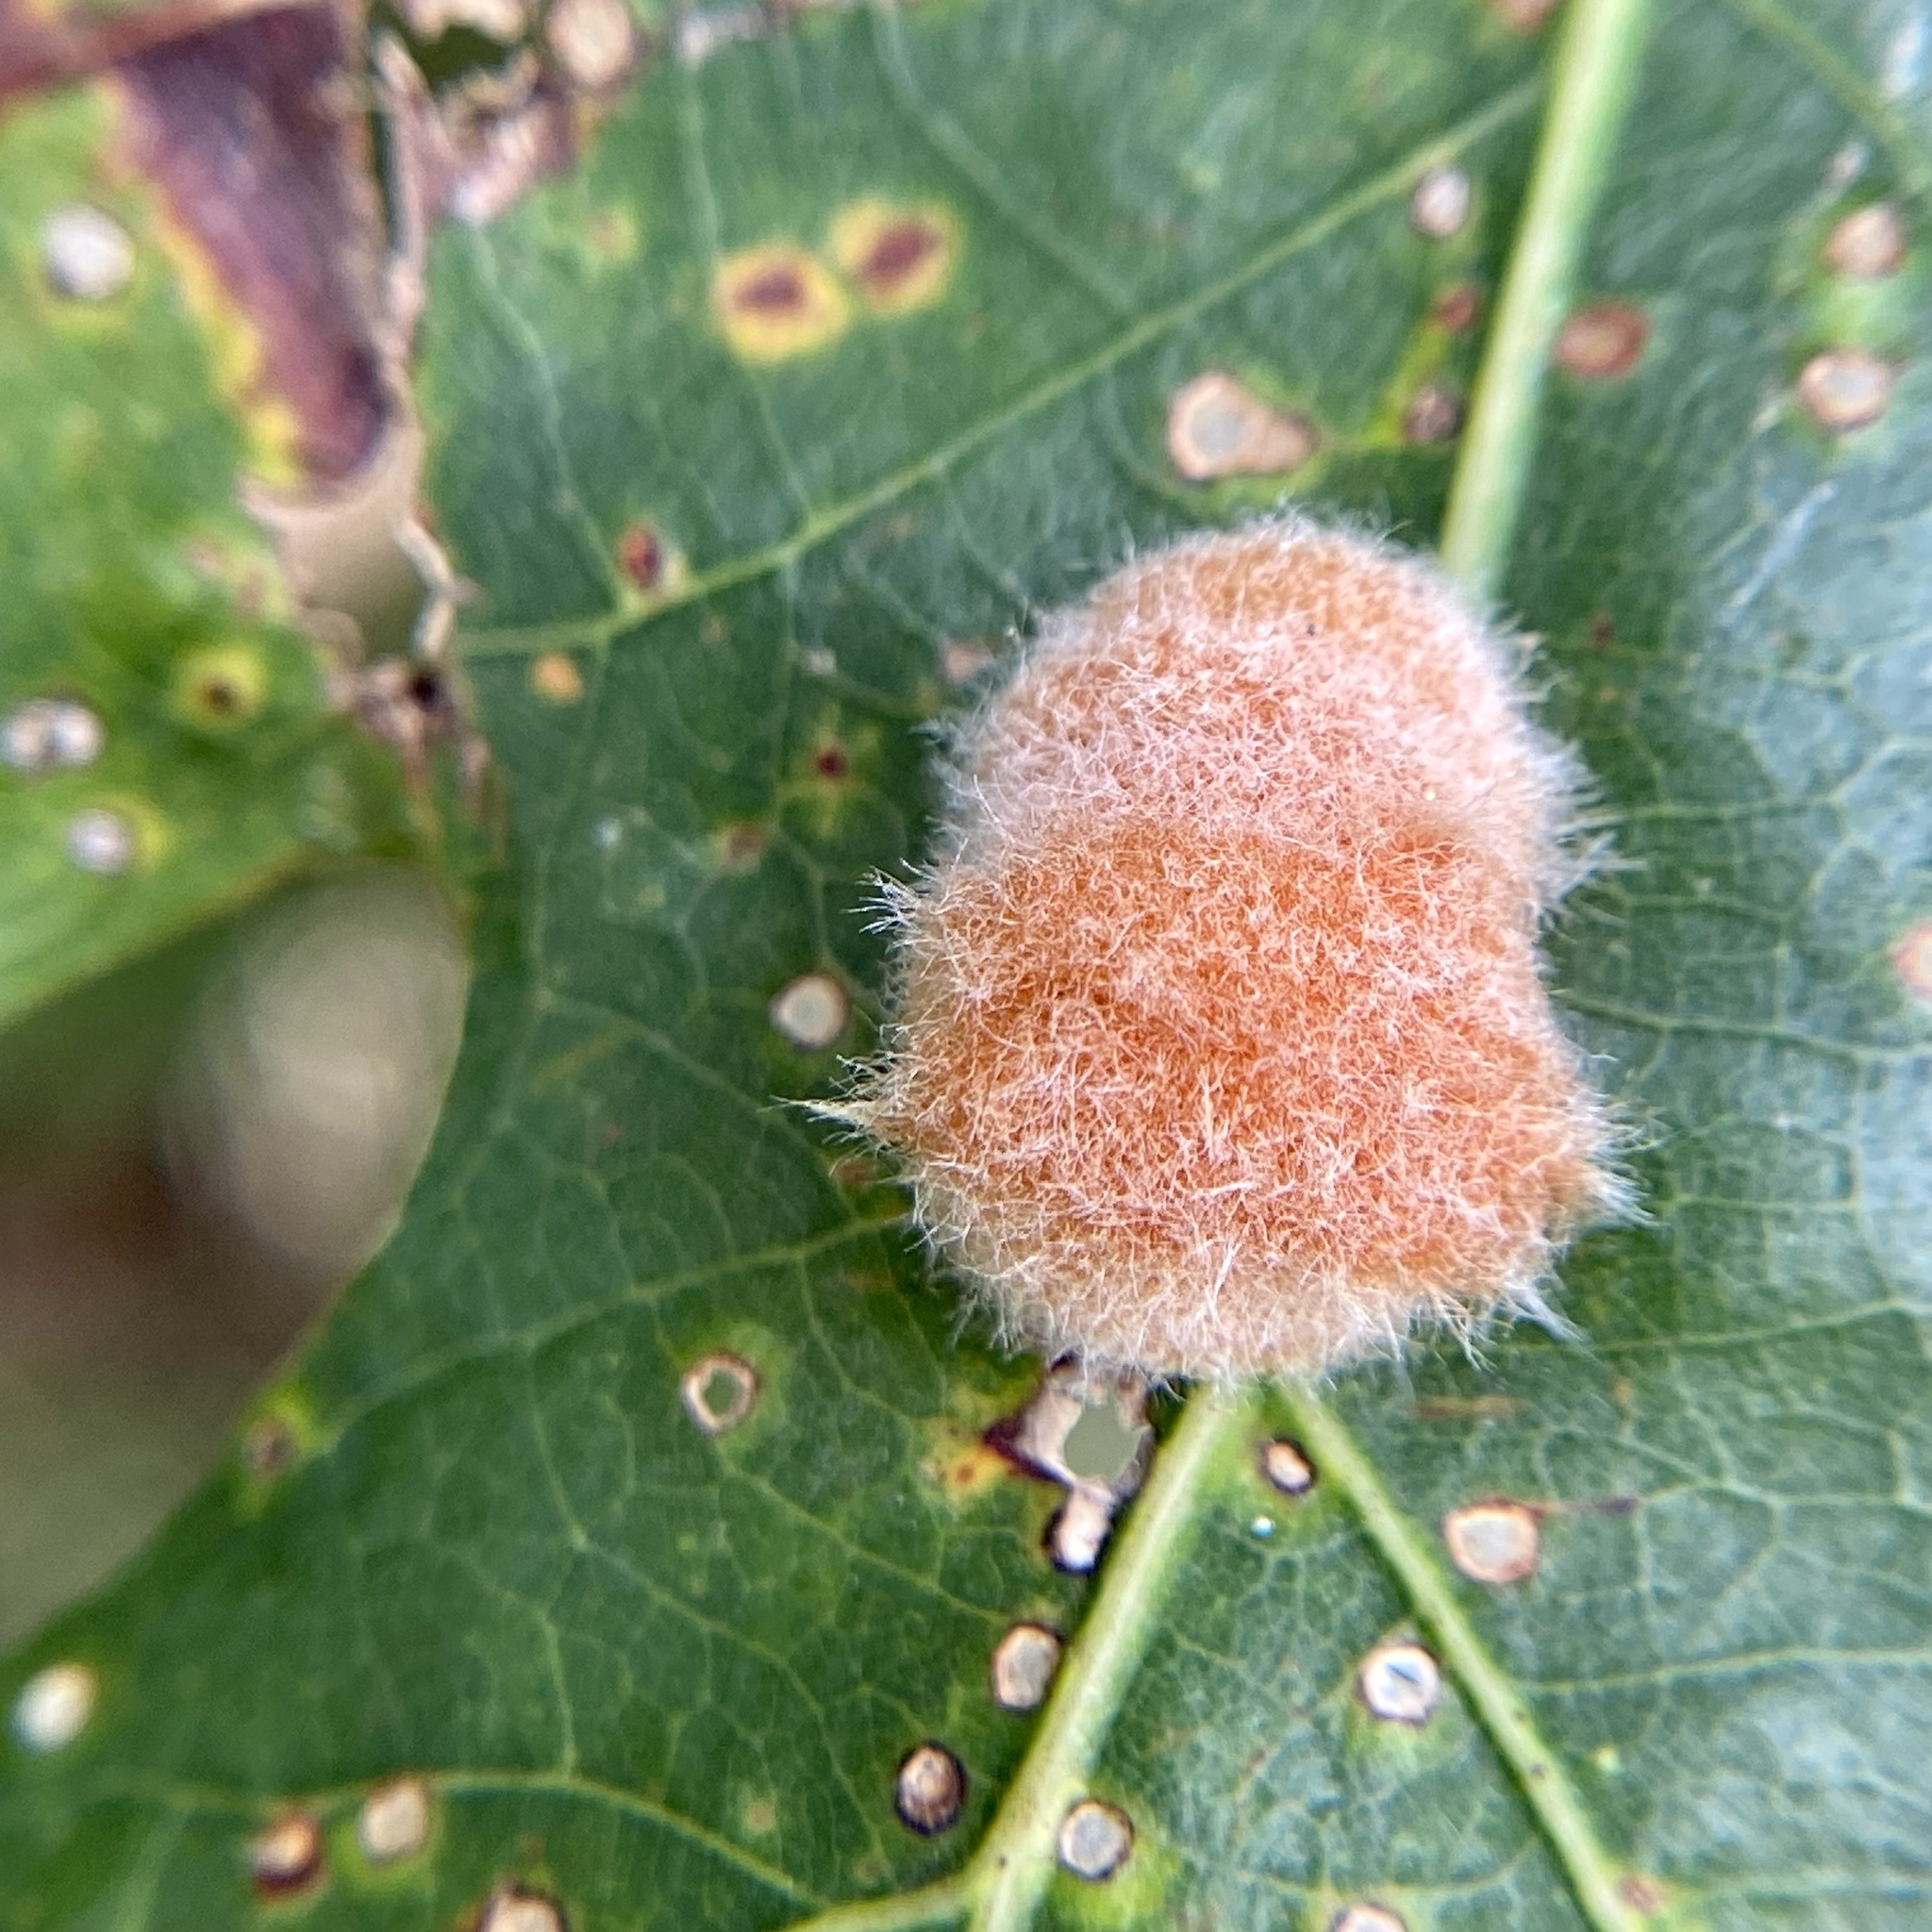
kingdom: Animalia
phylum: Arthropoda
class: Insecta
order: Hymenoptera
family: Cynipidae
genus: Andricus
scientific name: Andricus quercusflocci
